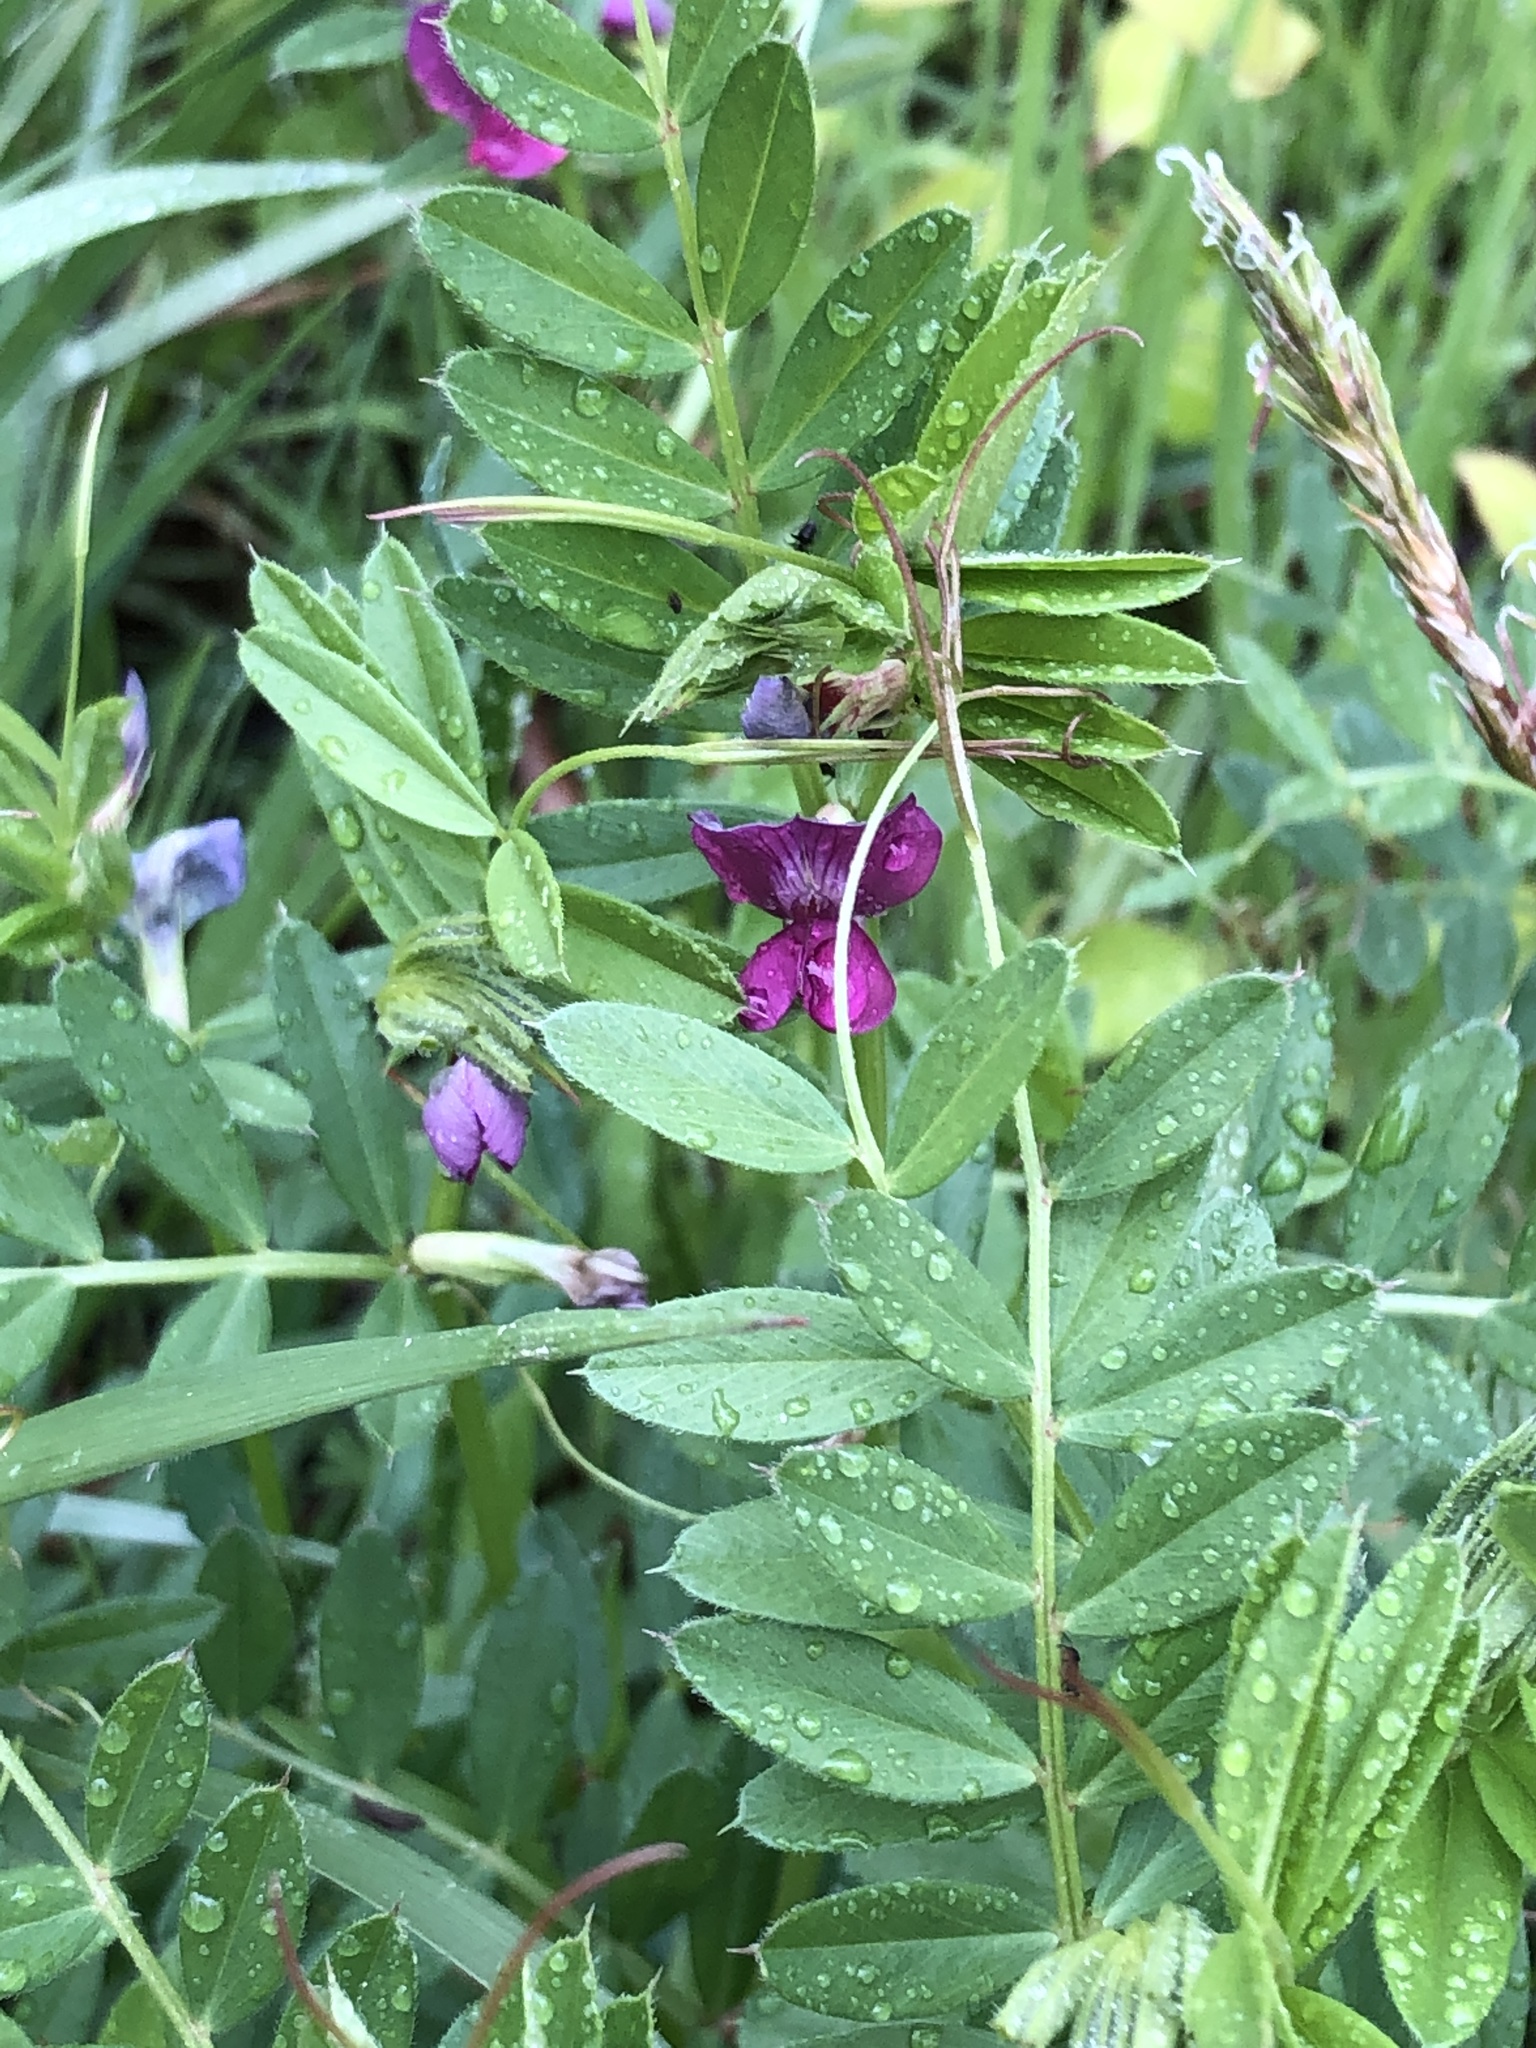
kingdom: Plantae
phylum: Tracheophyta
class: Magnoliopsida
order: Fabales
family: Fabaceae
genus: Vicia
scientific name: Vicia sativa
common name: Garden vetch
